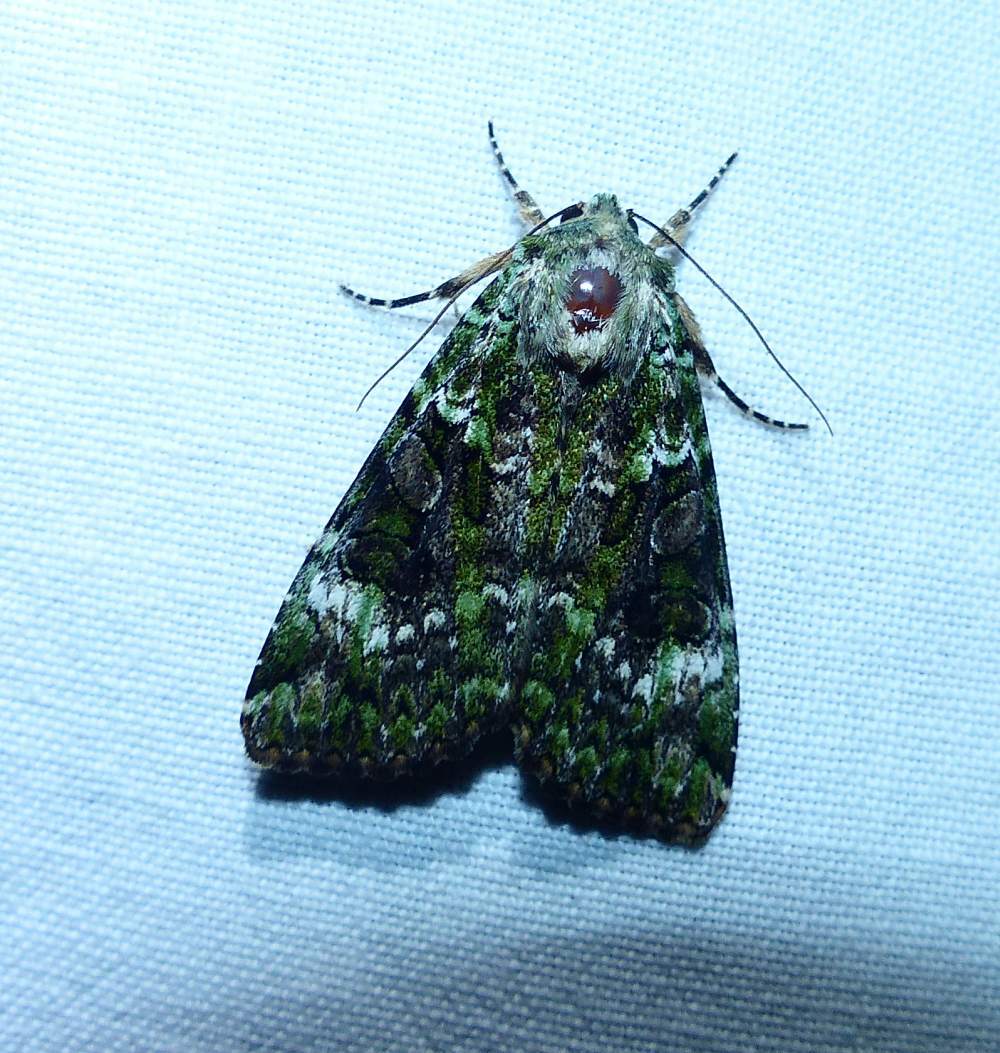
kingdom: Animalia
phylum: Arthropoda
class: Insecta
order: Lepidoptera
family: Noctuidae
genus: Anaplectoides
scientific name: Anaplectoides prasina
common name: Green arches
